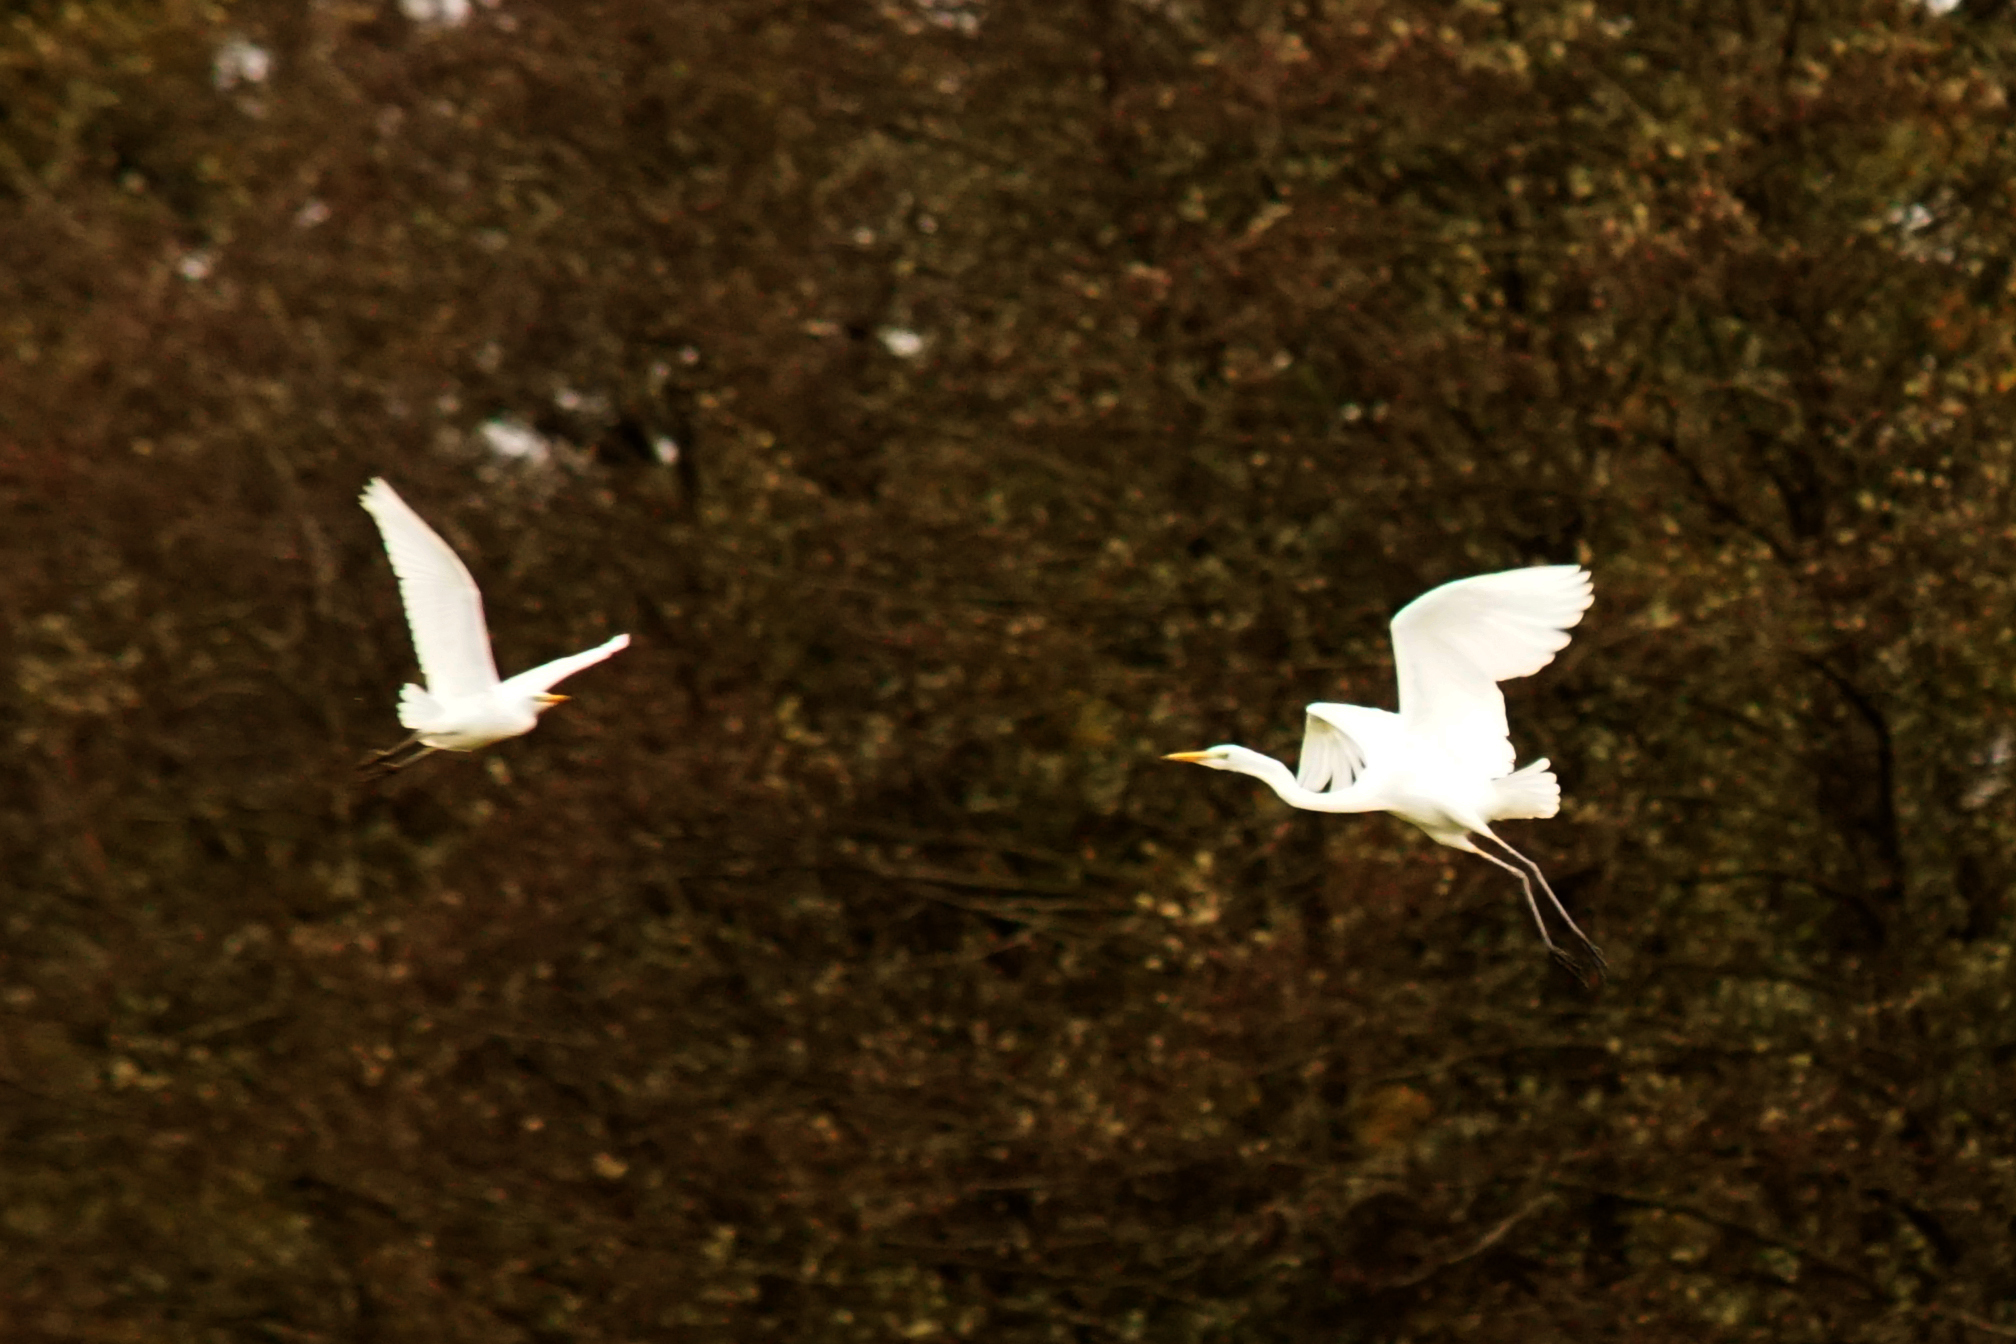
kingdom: Animalia
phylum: Chordata
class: Aves
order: Pelecaniformes
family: Ardeidae
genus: Ardea
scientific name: Ardea alba
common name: Great egret
